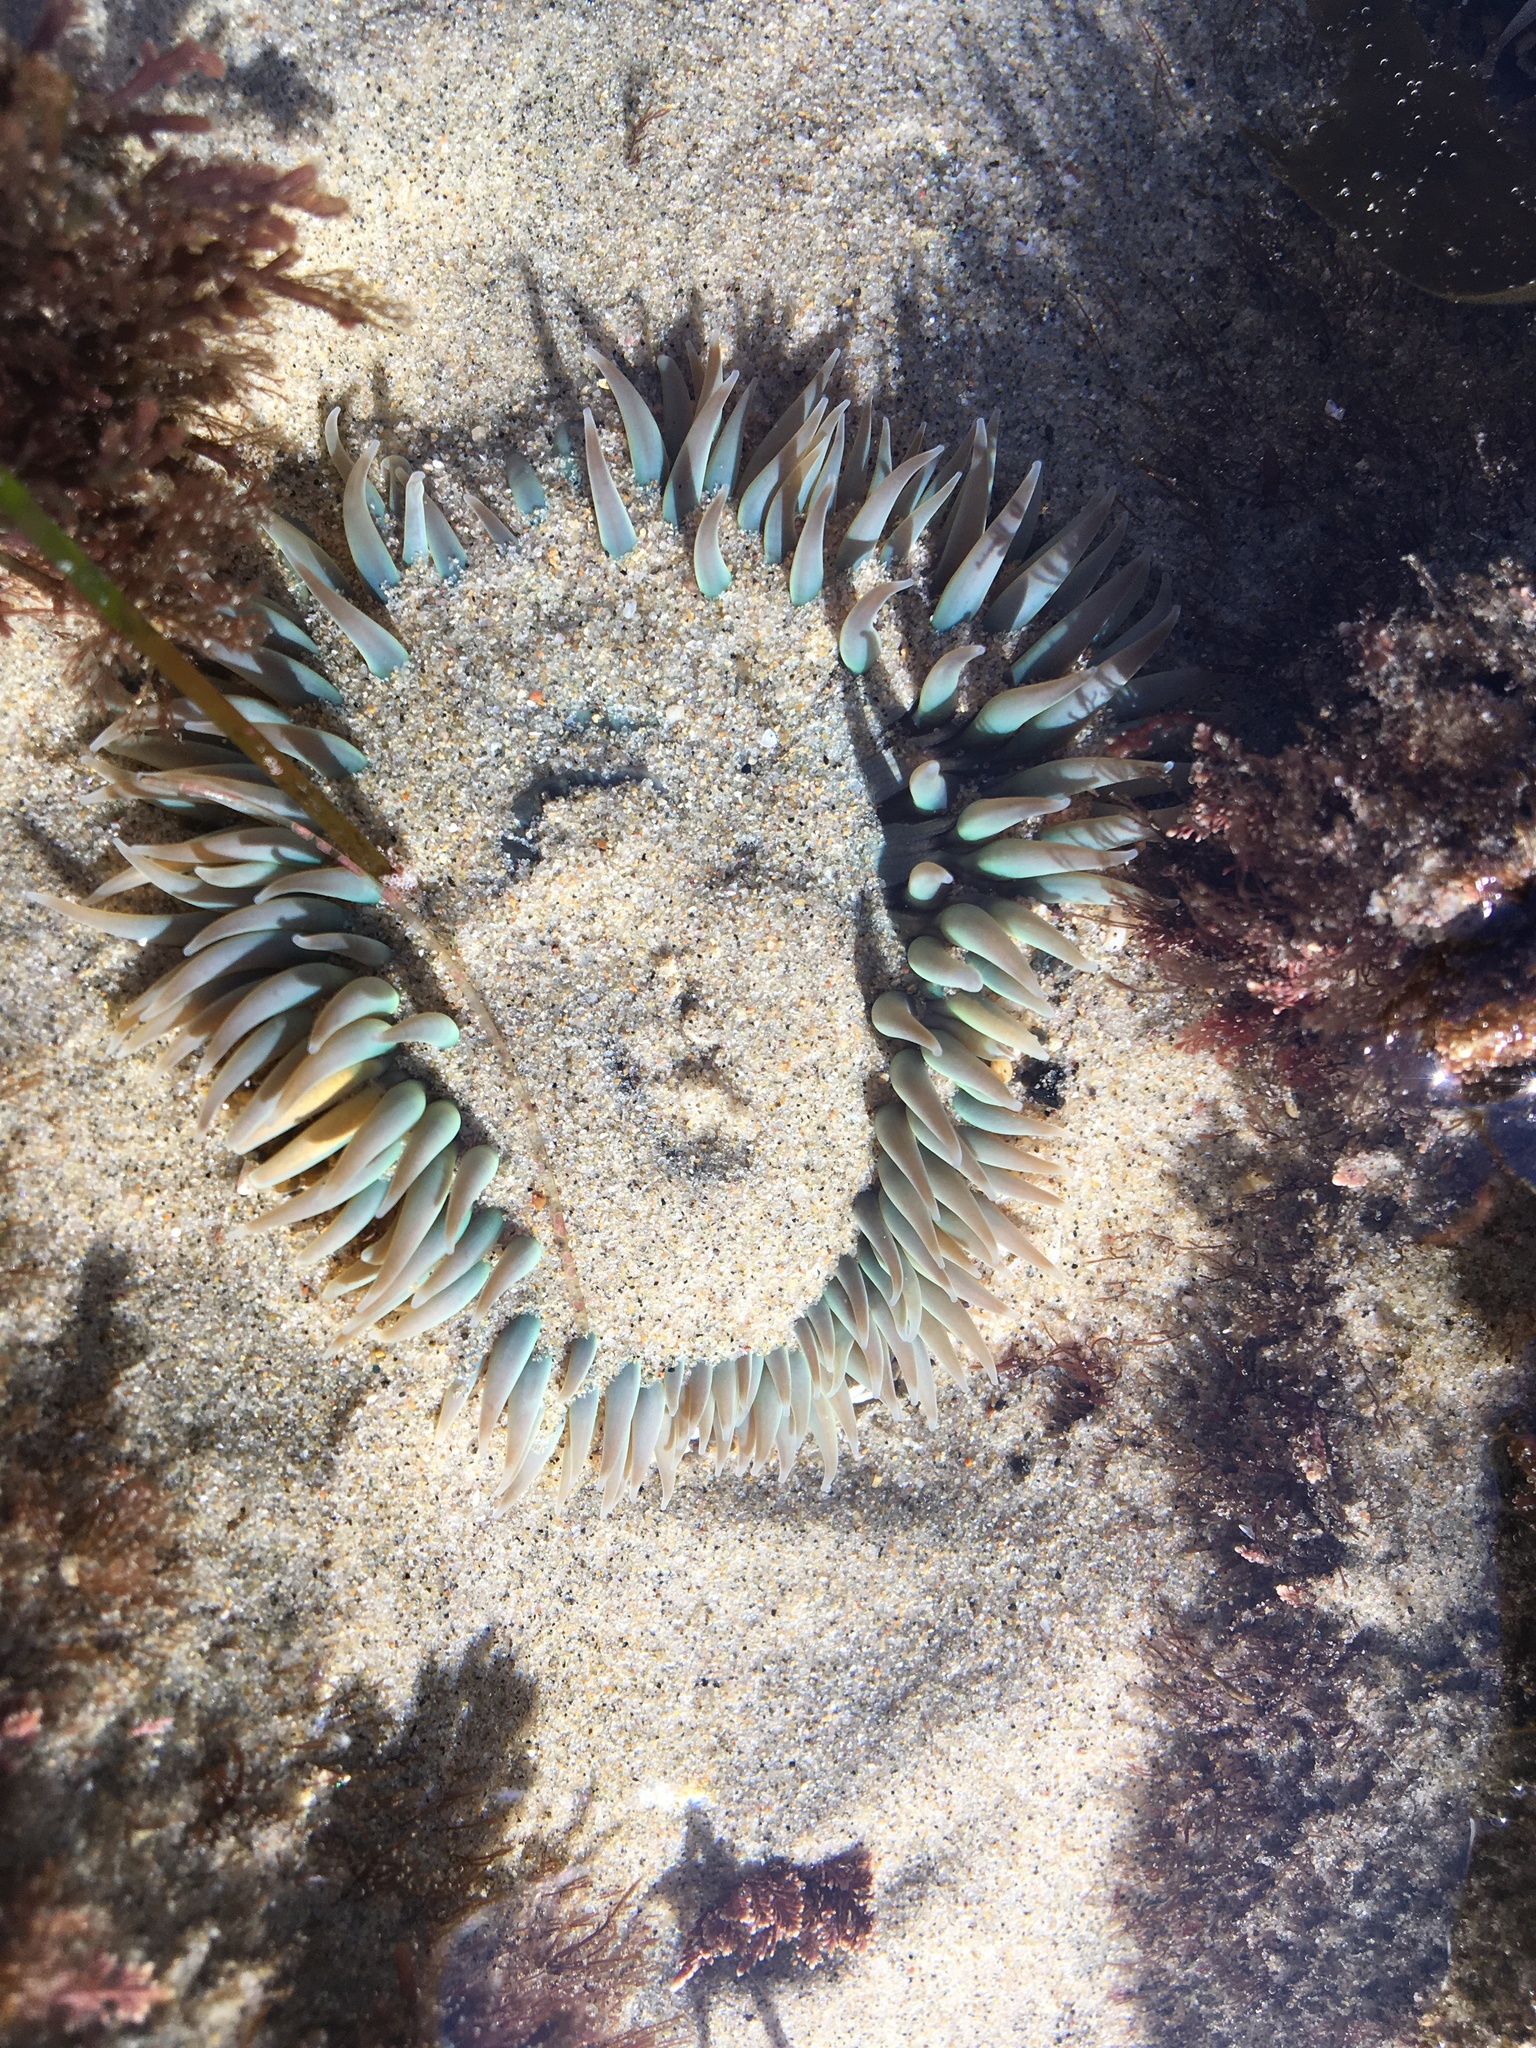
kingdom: Animalia
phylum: Cnidaria
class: Anthozoa
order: Actiniaria
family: Actiniidae
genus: Anthopleura
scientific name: Anthopleura sola
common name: Sun anemone
